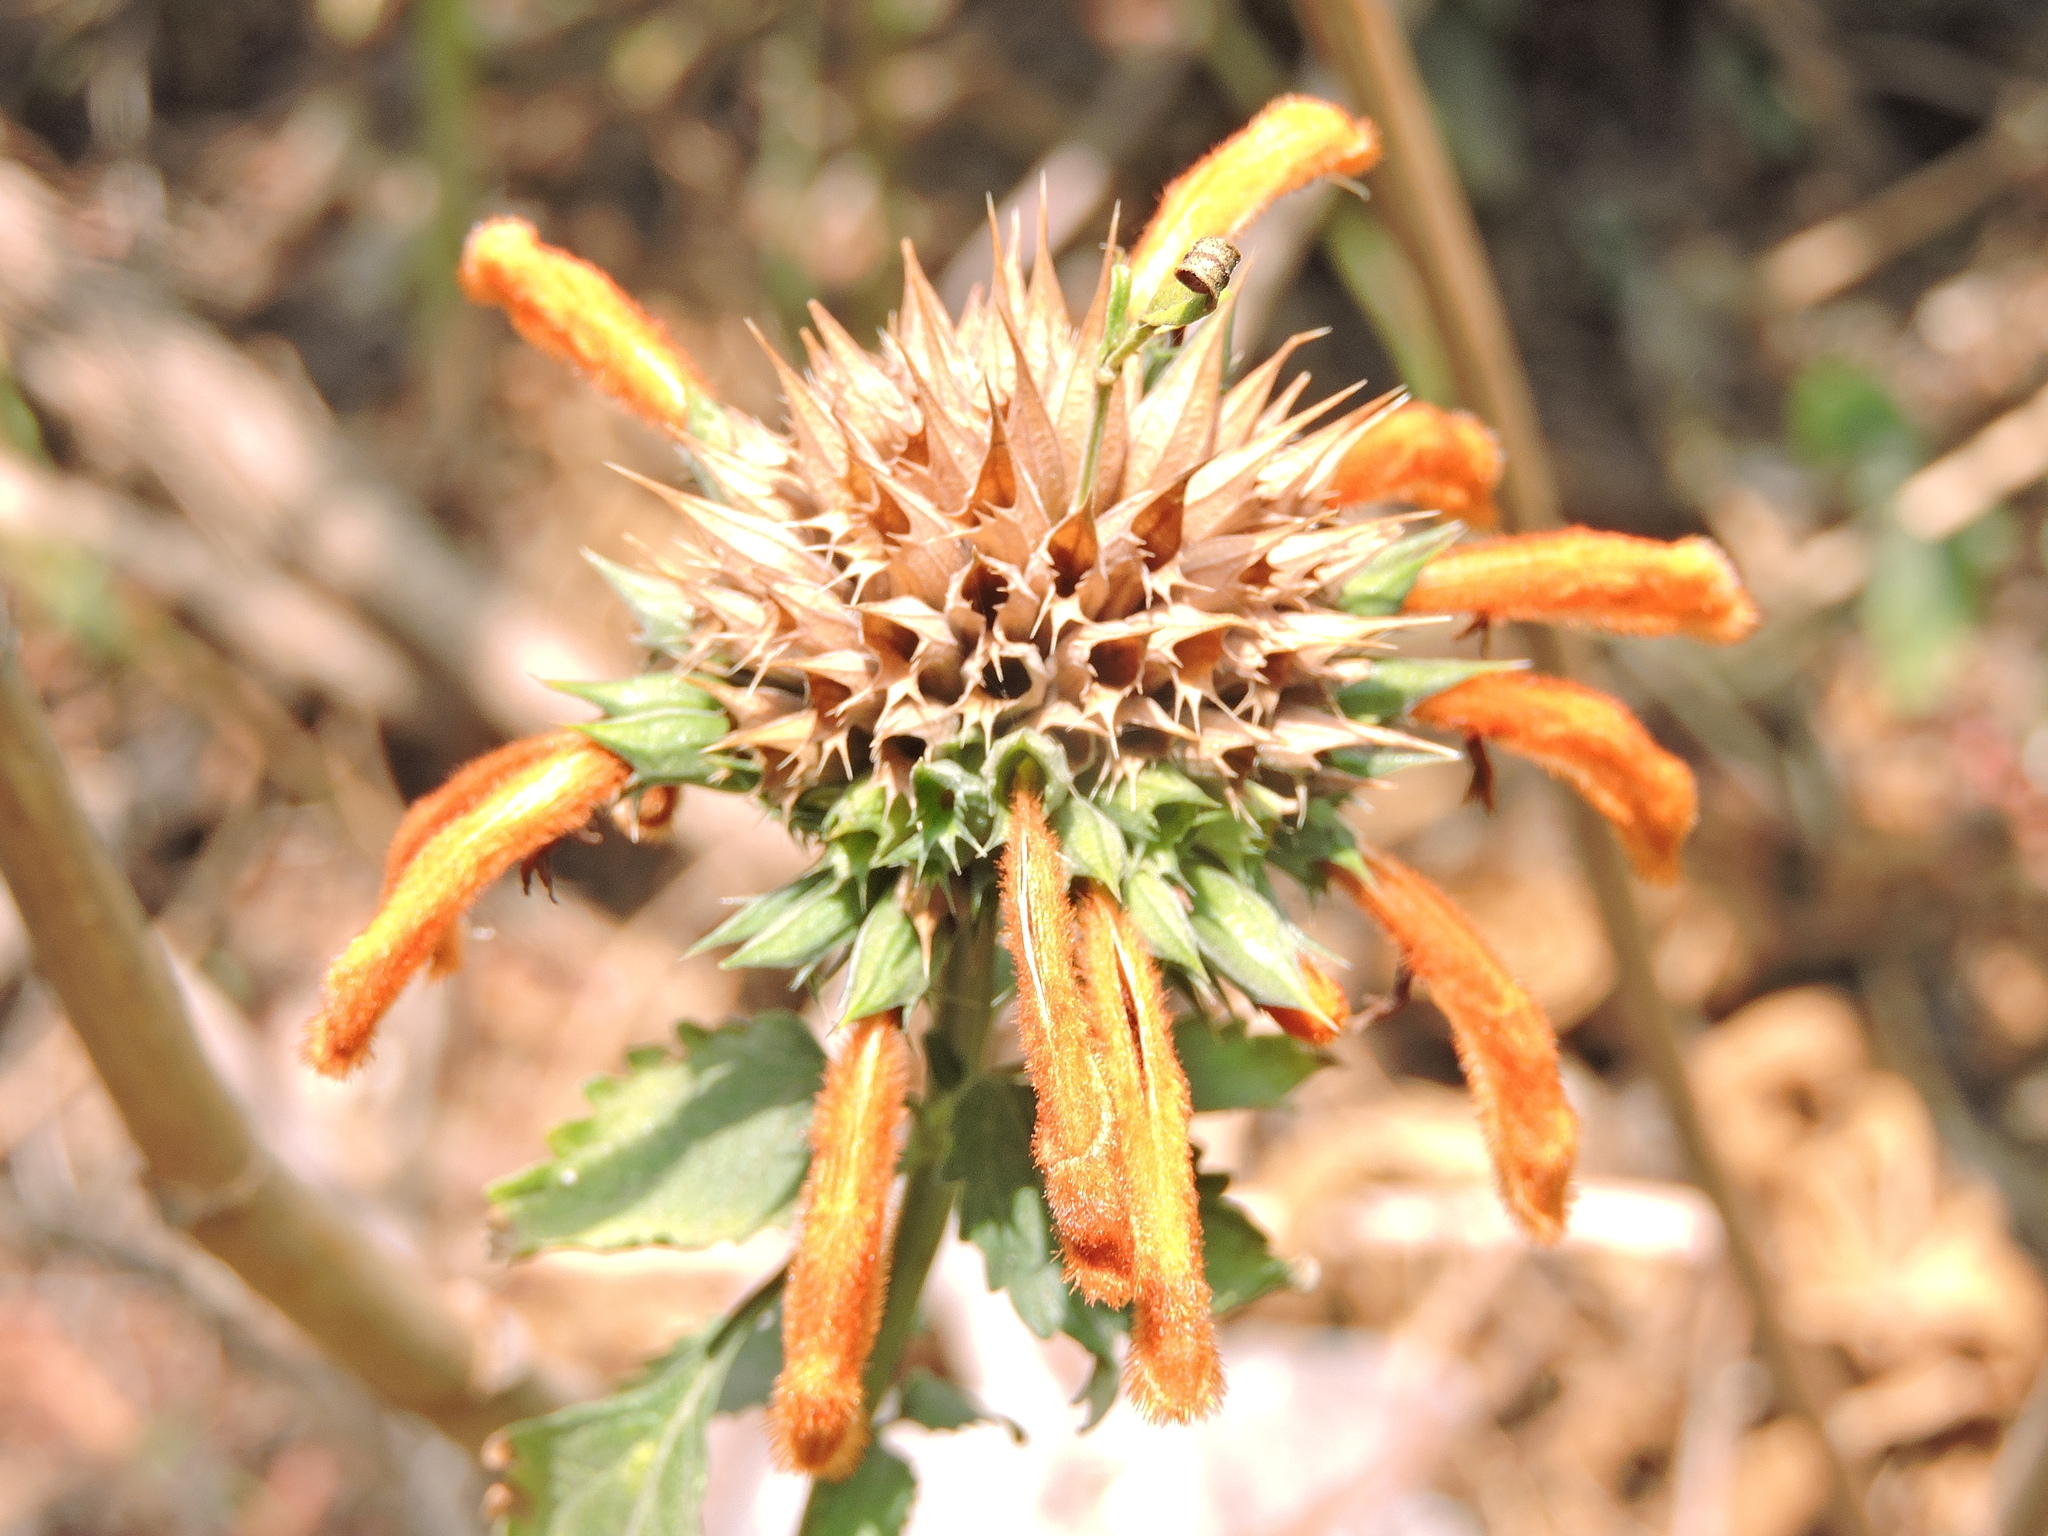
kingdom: Plantae
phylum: Tracheophyta
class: Magnoliopsida
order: Lamiales
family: Lamiaceae
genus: Leonotis
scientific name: Leonotis nepetifolia
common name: Christmas candlestick
